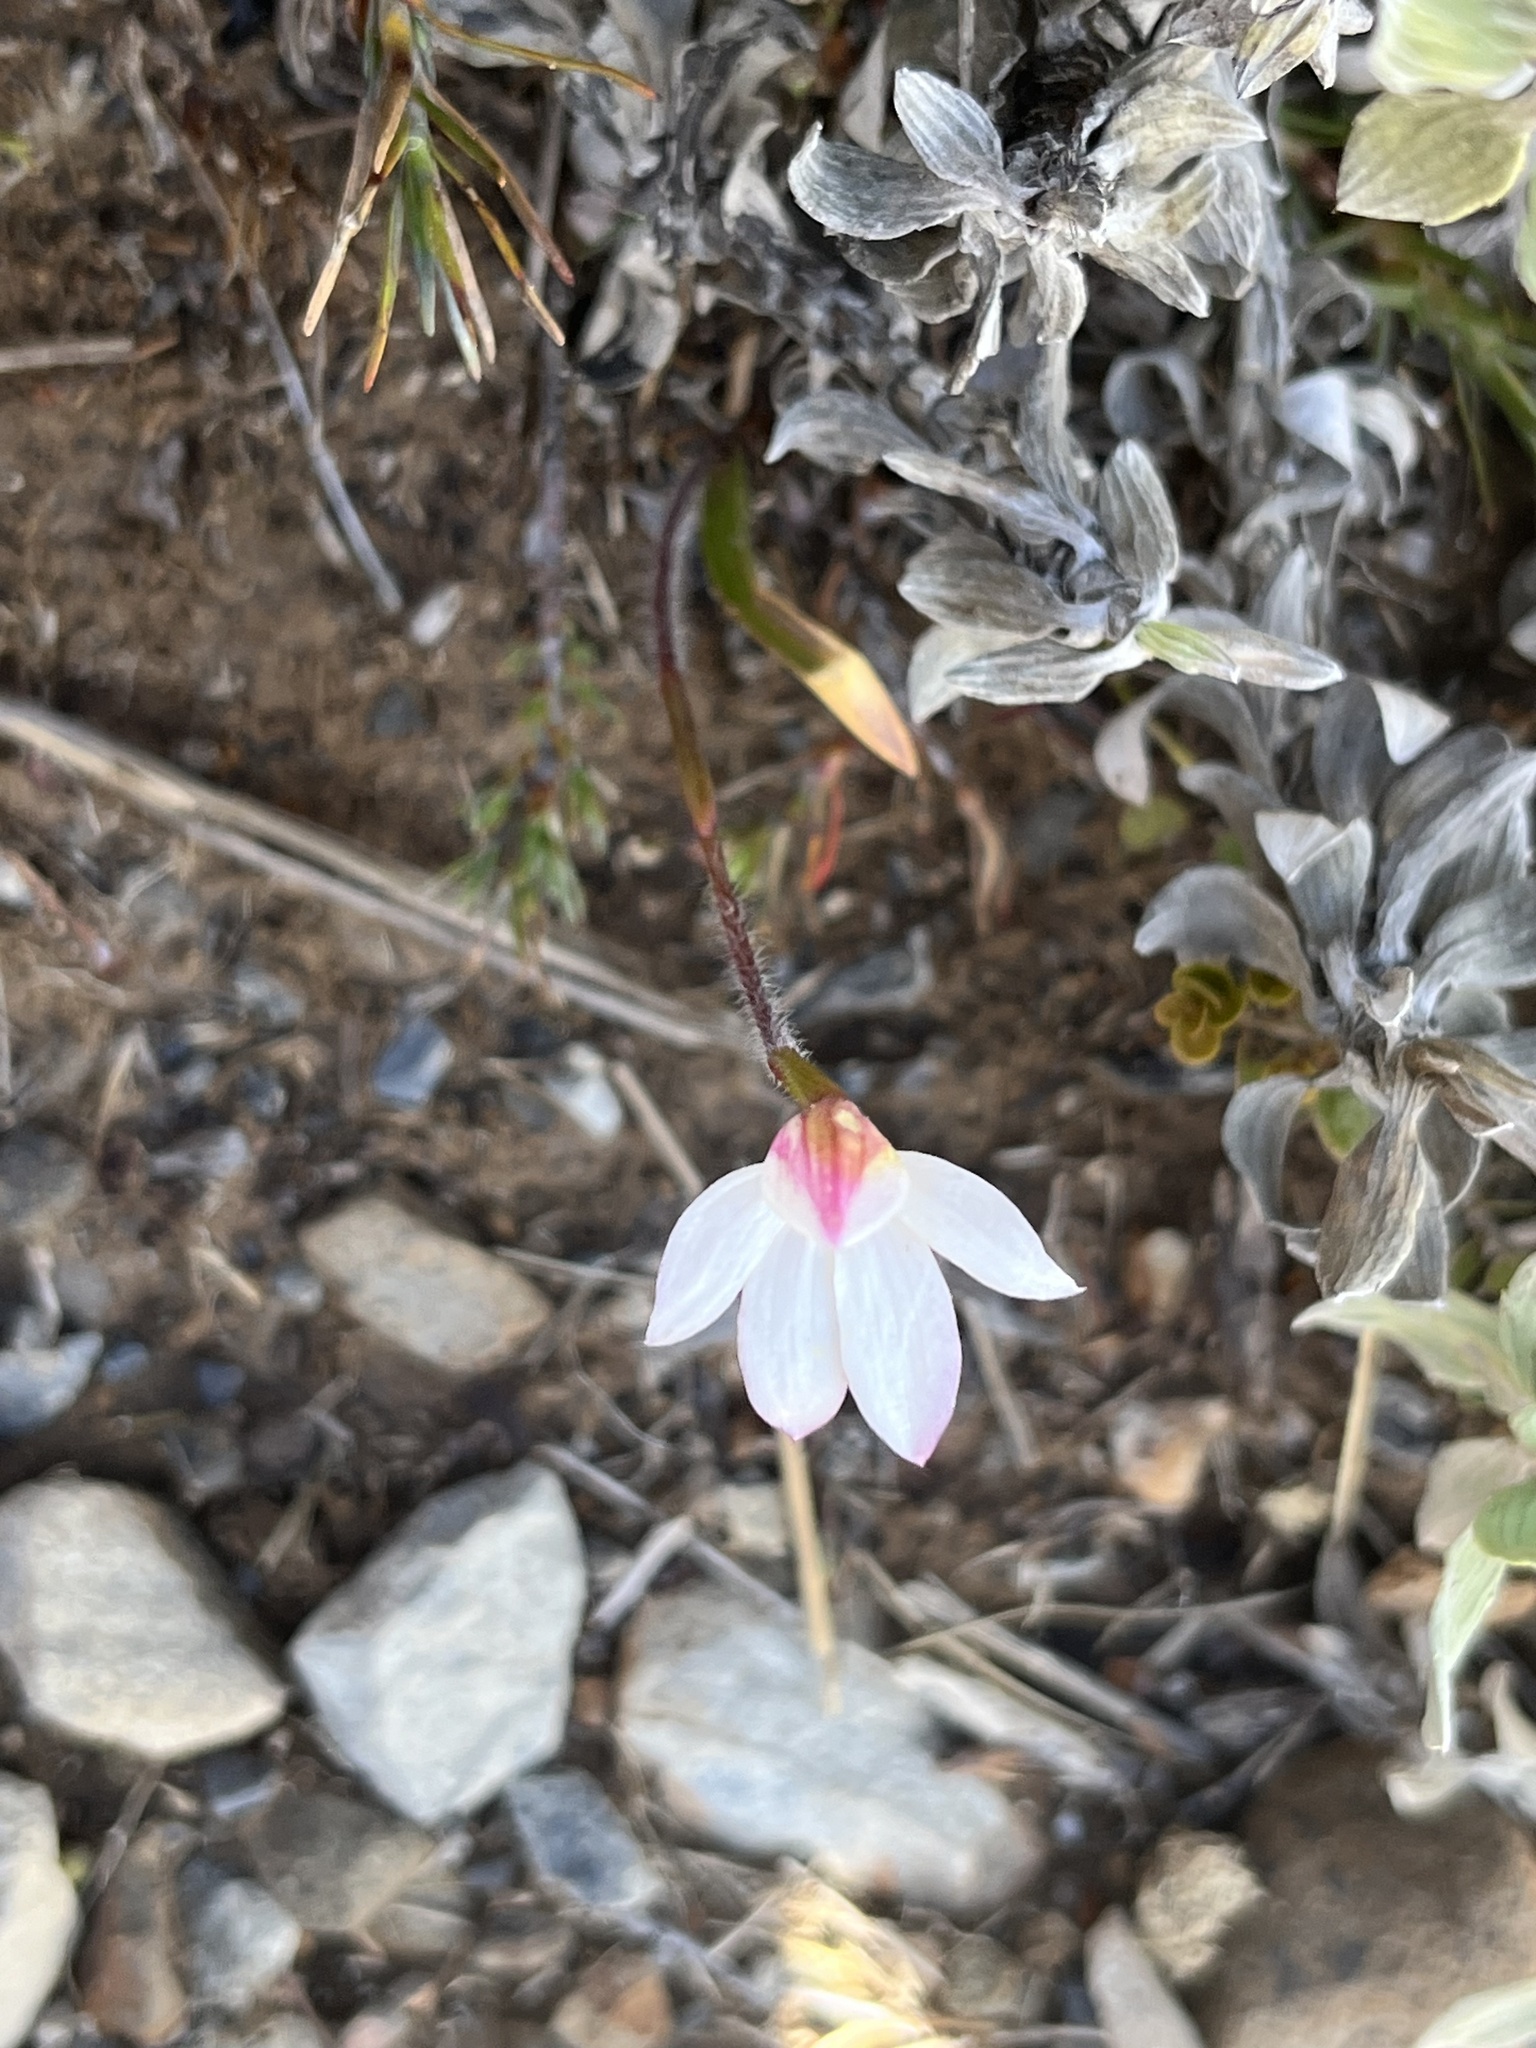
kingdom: Plantae
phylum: Tracheophyta
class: Liliopsida
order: Asparagales
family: Orchidaceae
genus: Caladenia
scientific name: Caladenia lyallii
